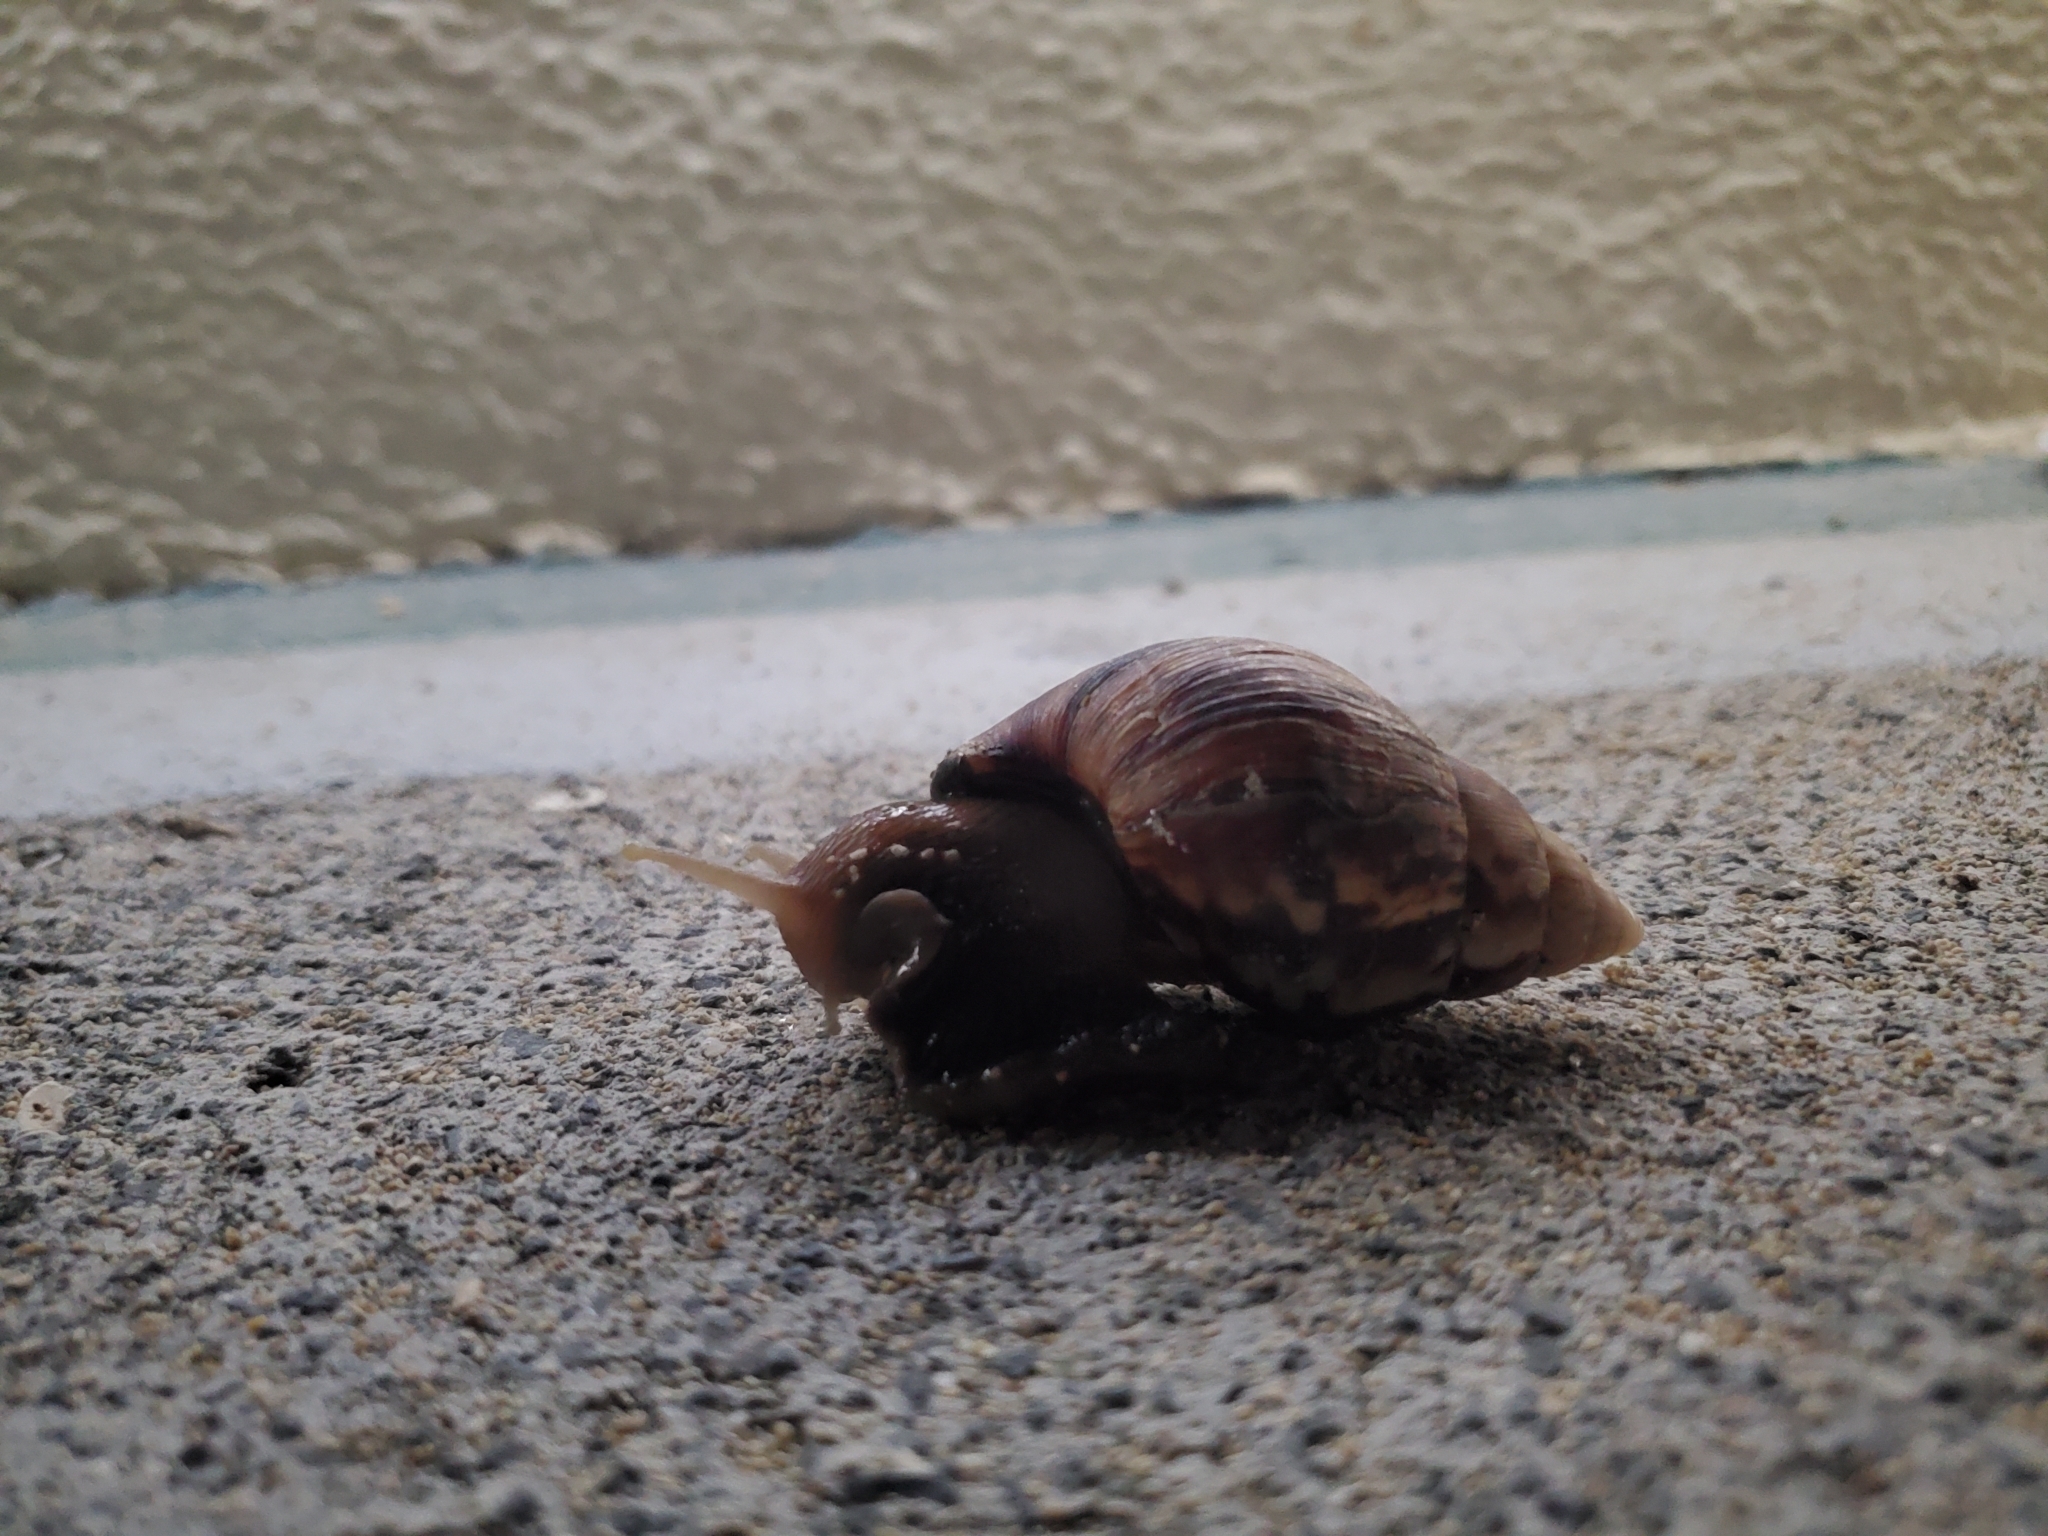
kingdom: Animalia
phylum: Mollusca
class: Gastropoda
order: Stylommatophora
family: Achatinidae
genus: Lissachatina
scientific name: Lissachatina fulica
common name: Giant african snail
